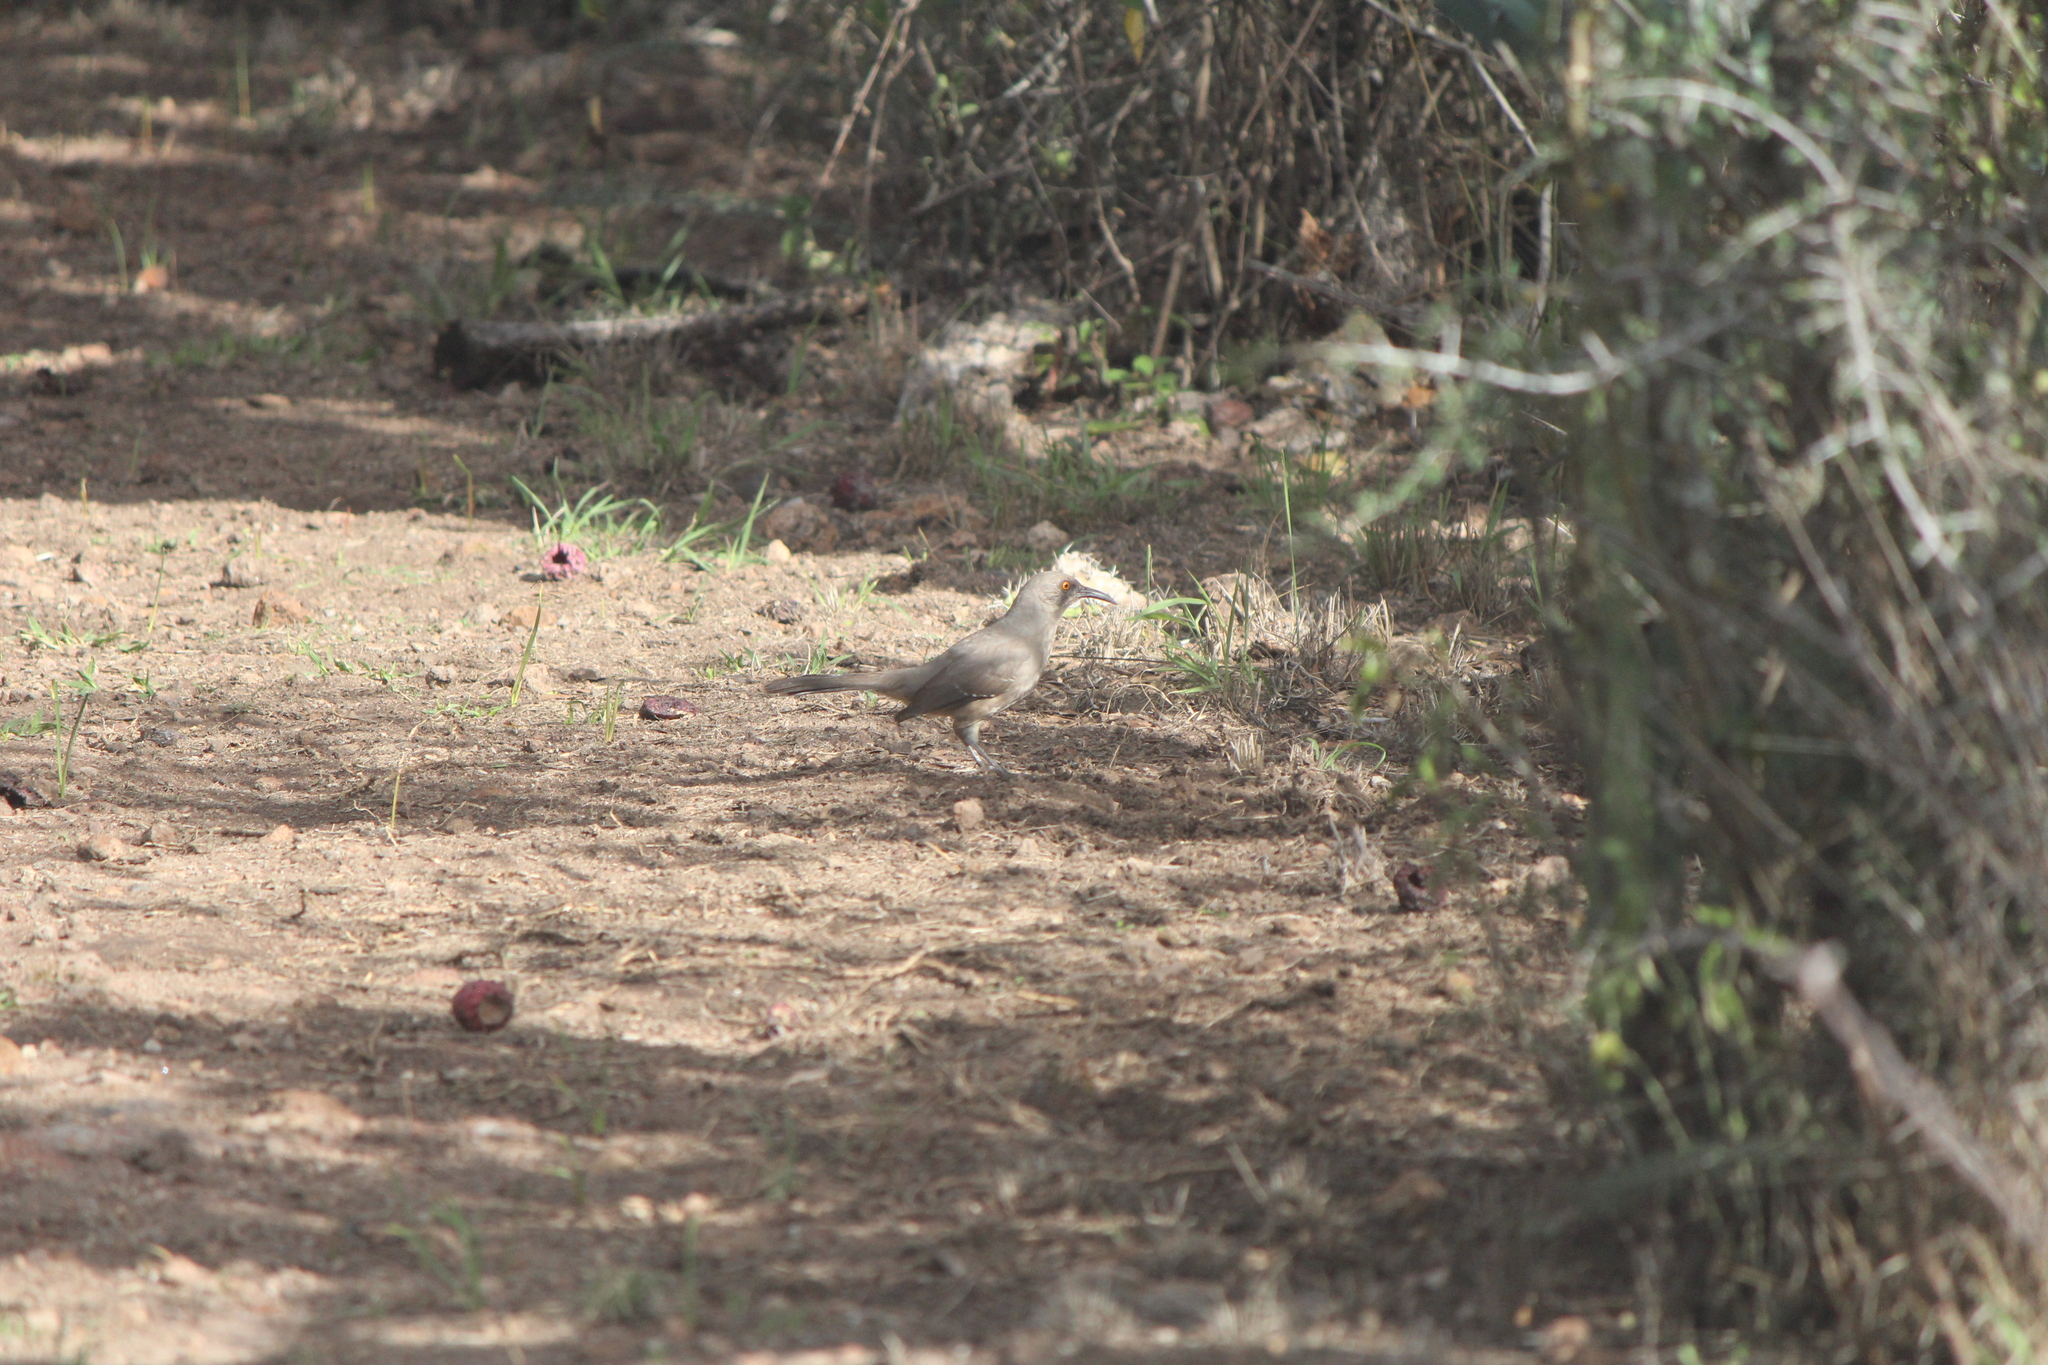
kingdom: Animalia
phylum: Chordata
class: Aves
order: Passeriformes
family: Mimidae
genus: Toxostoma
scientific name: Toxostoma curvirostre
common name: Curve-billed thrasher
